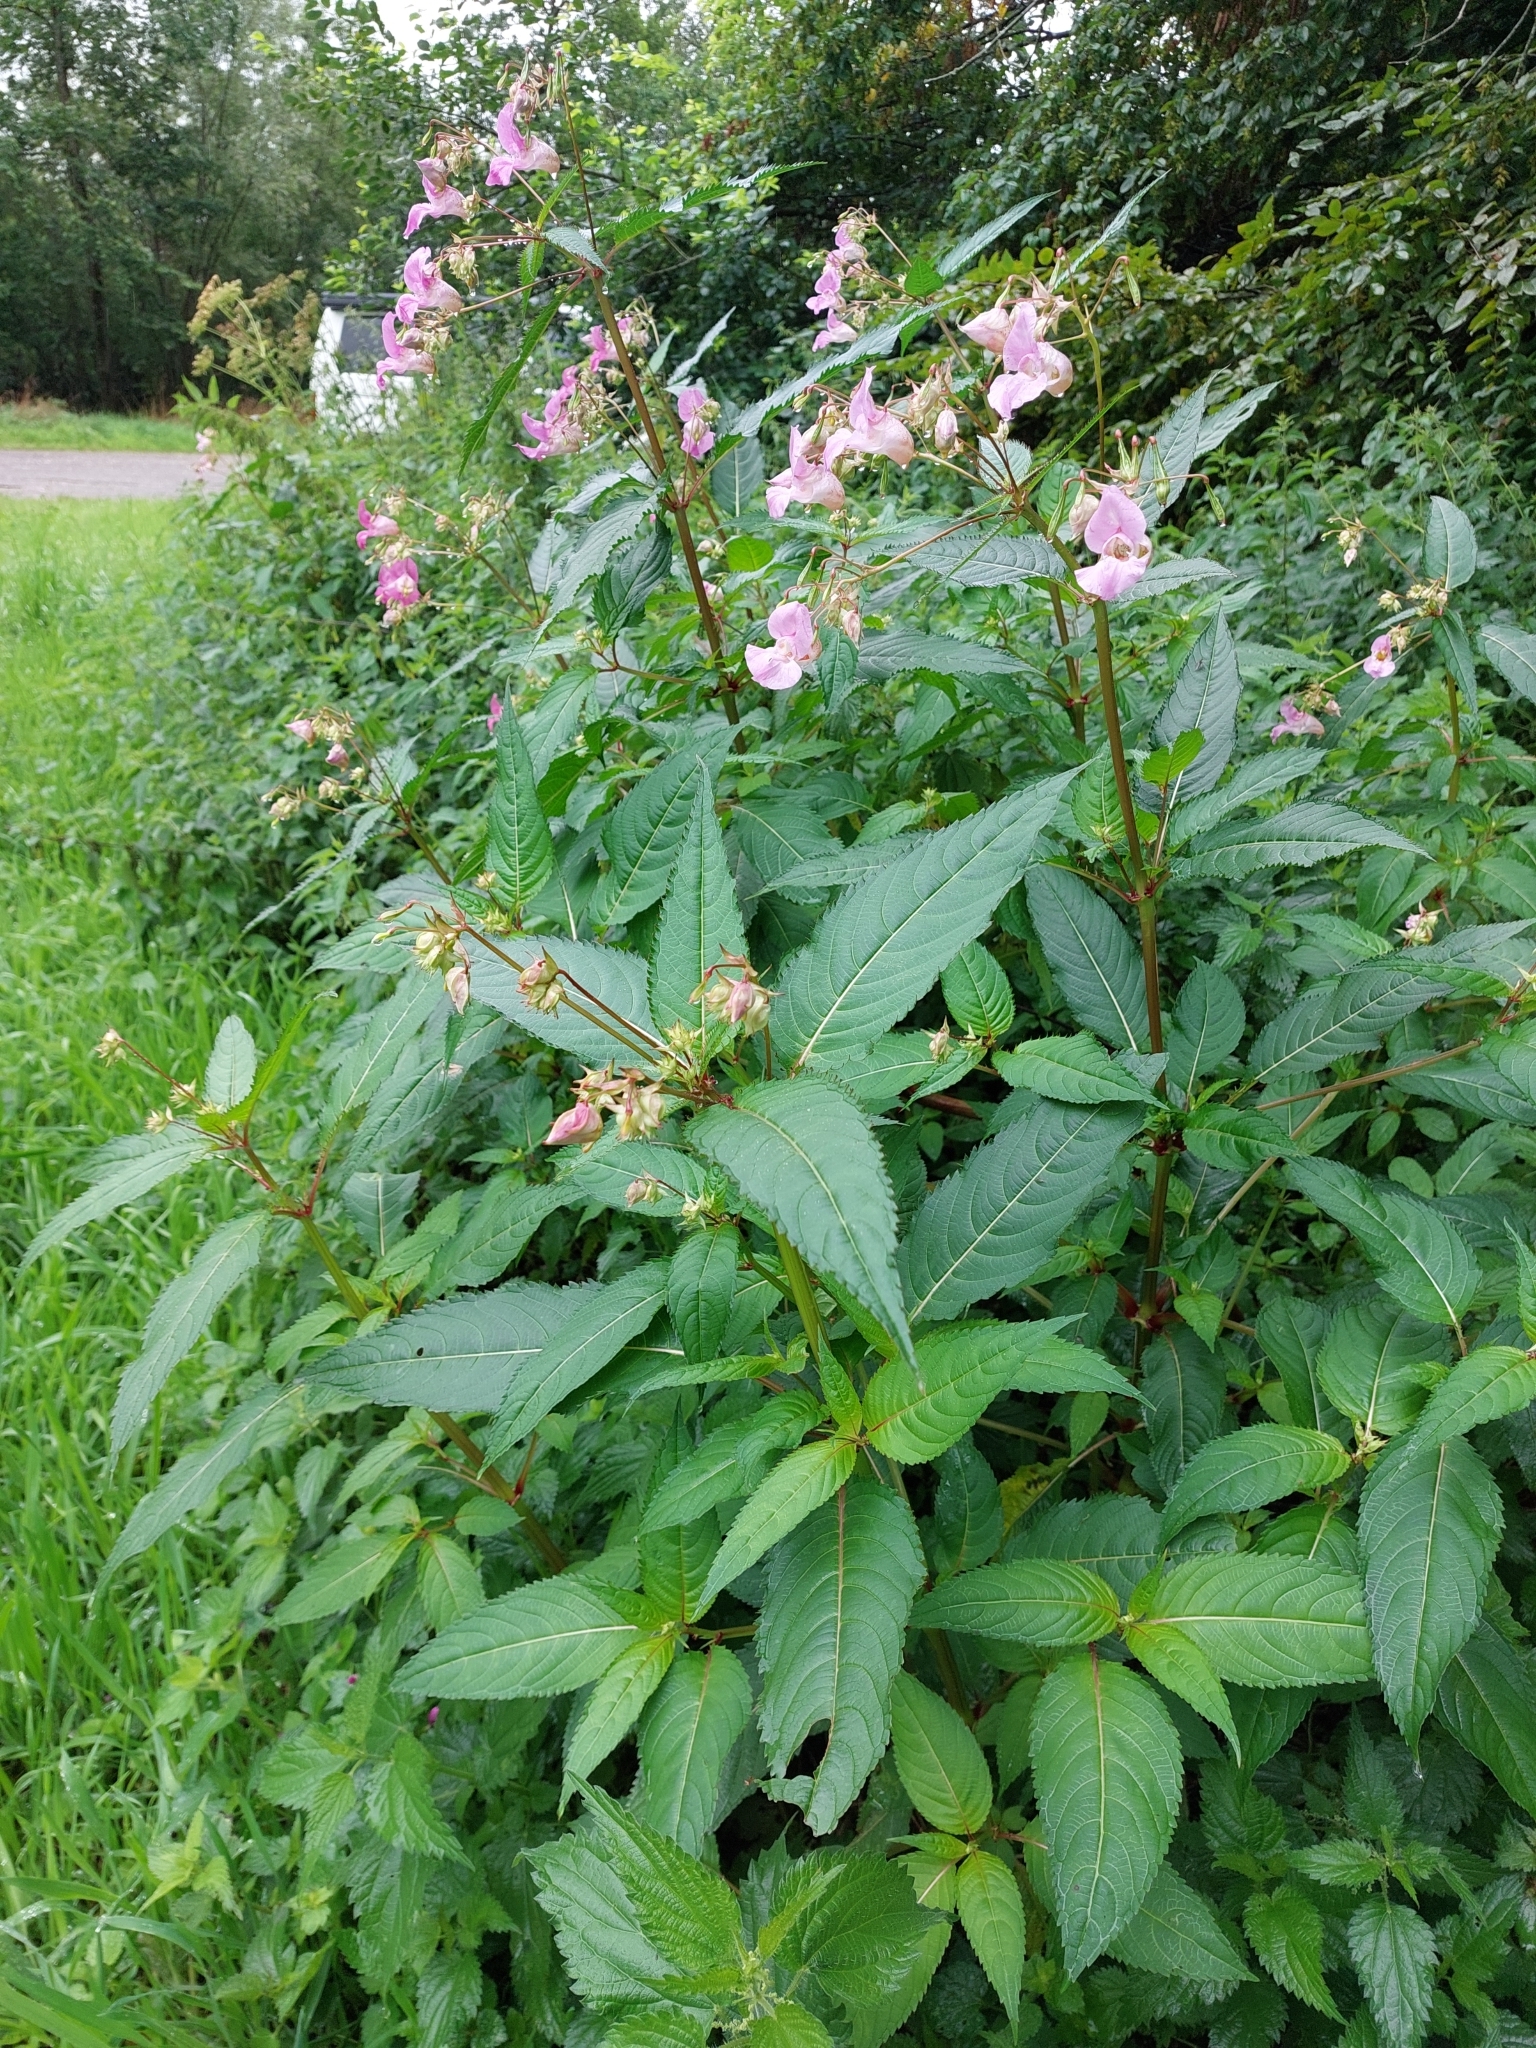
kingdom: Plantae
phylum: Tracheophyta
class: Magnoliopsida
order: Ericales
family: Balsaminaceae
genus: Impatiens
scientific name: Impatiens glandulifera
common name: Himalayan balsam
